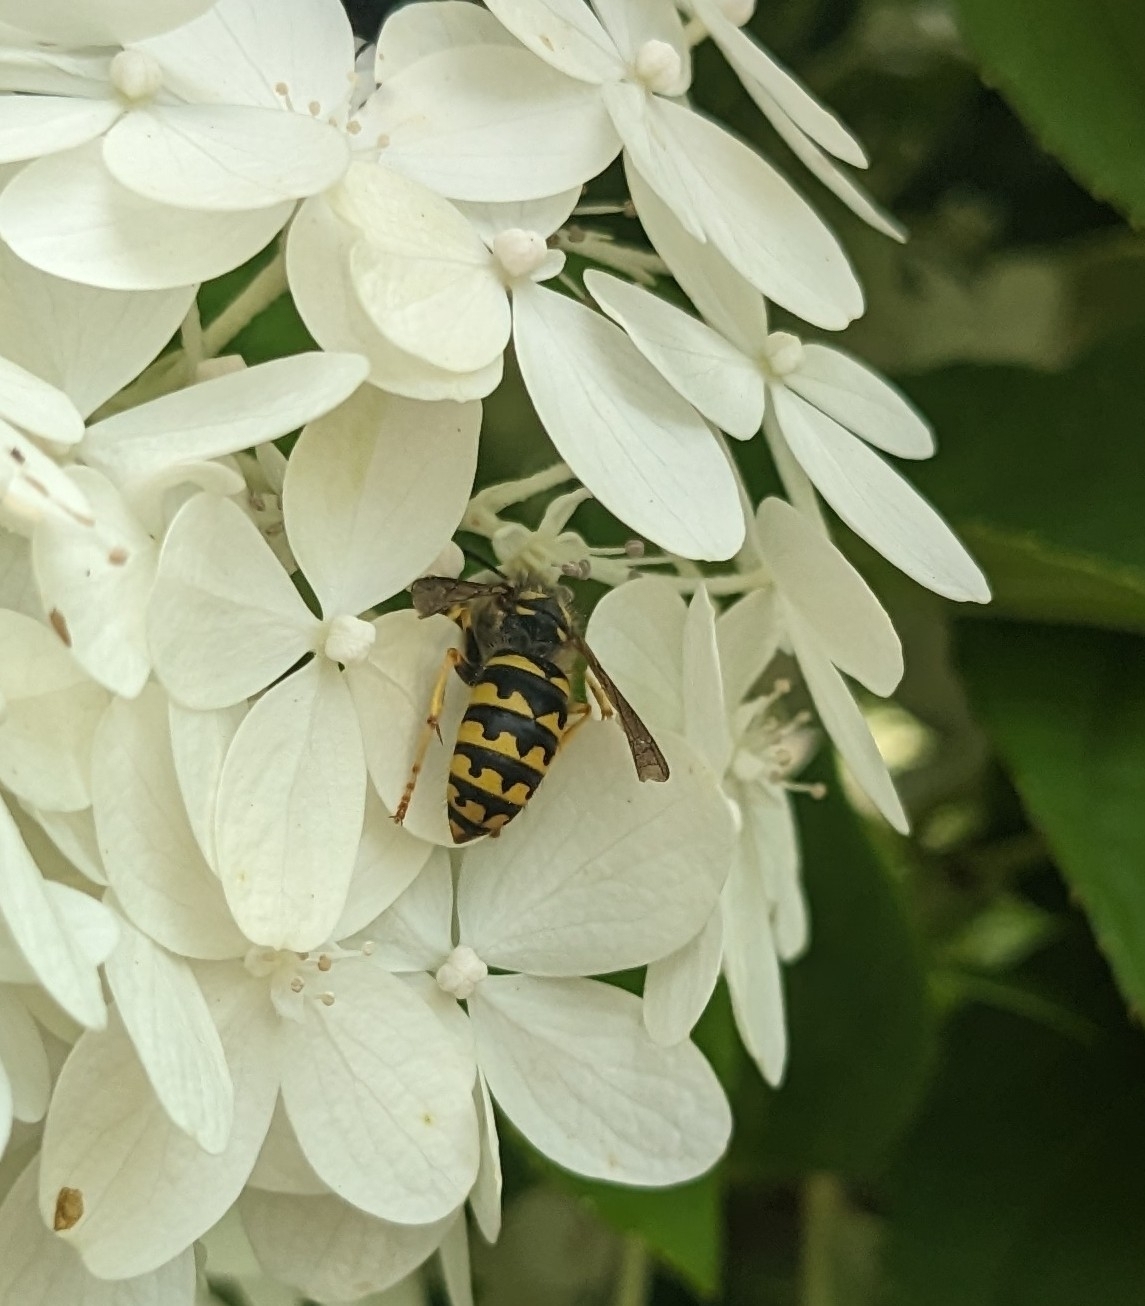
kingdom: Animalia
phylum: Arthropoda
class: Insecta
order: Hymenoptera
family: Vespidae
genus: Dolichovespula
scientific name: Dolichovespula arenaria
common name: Aerial yellowjacket
